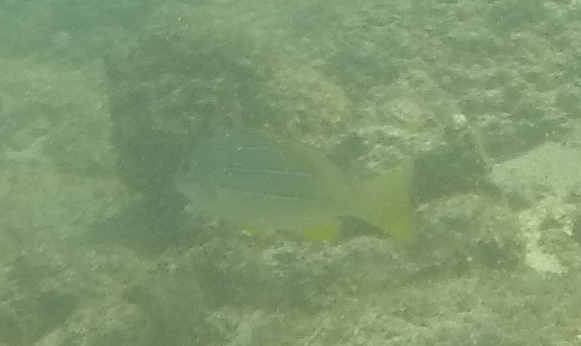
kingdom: Animalia
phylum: Chordata
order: Perciformes
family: Lutjanidae
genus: Lutjanus
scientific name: Lutjanus kasmira
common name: Common bluestripe snapper
